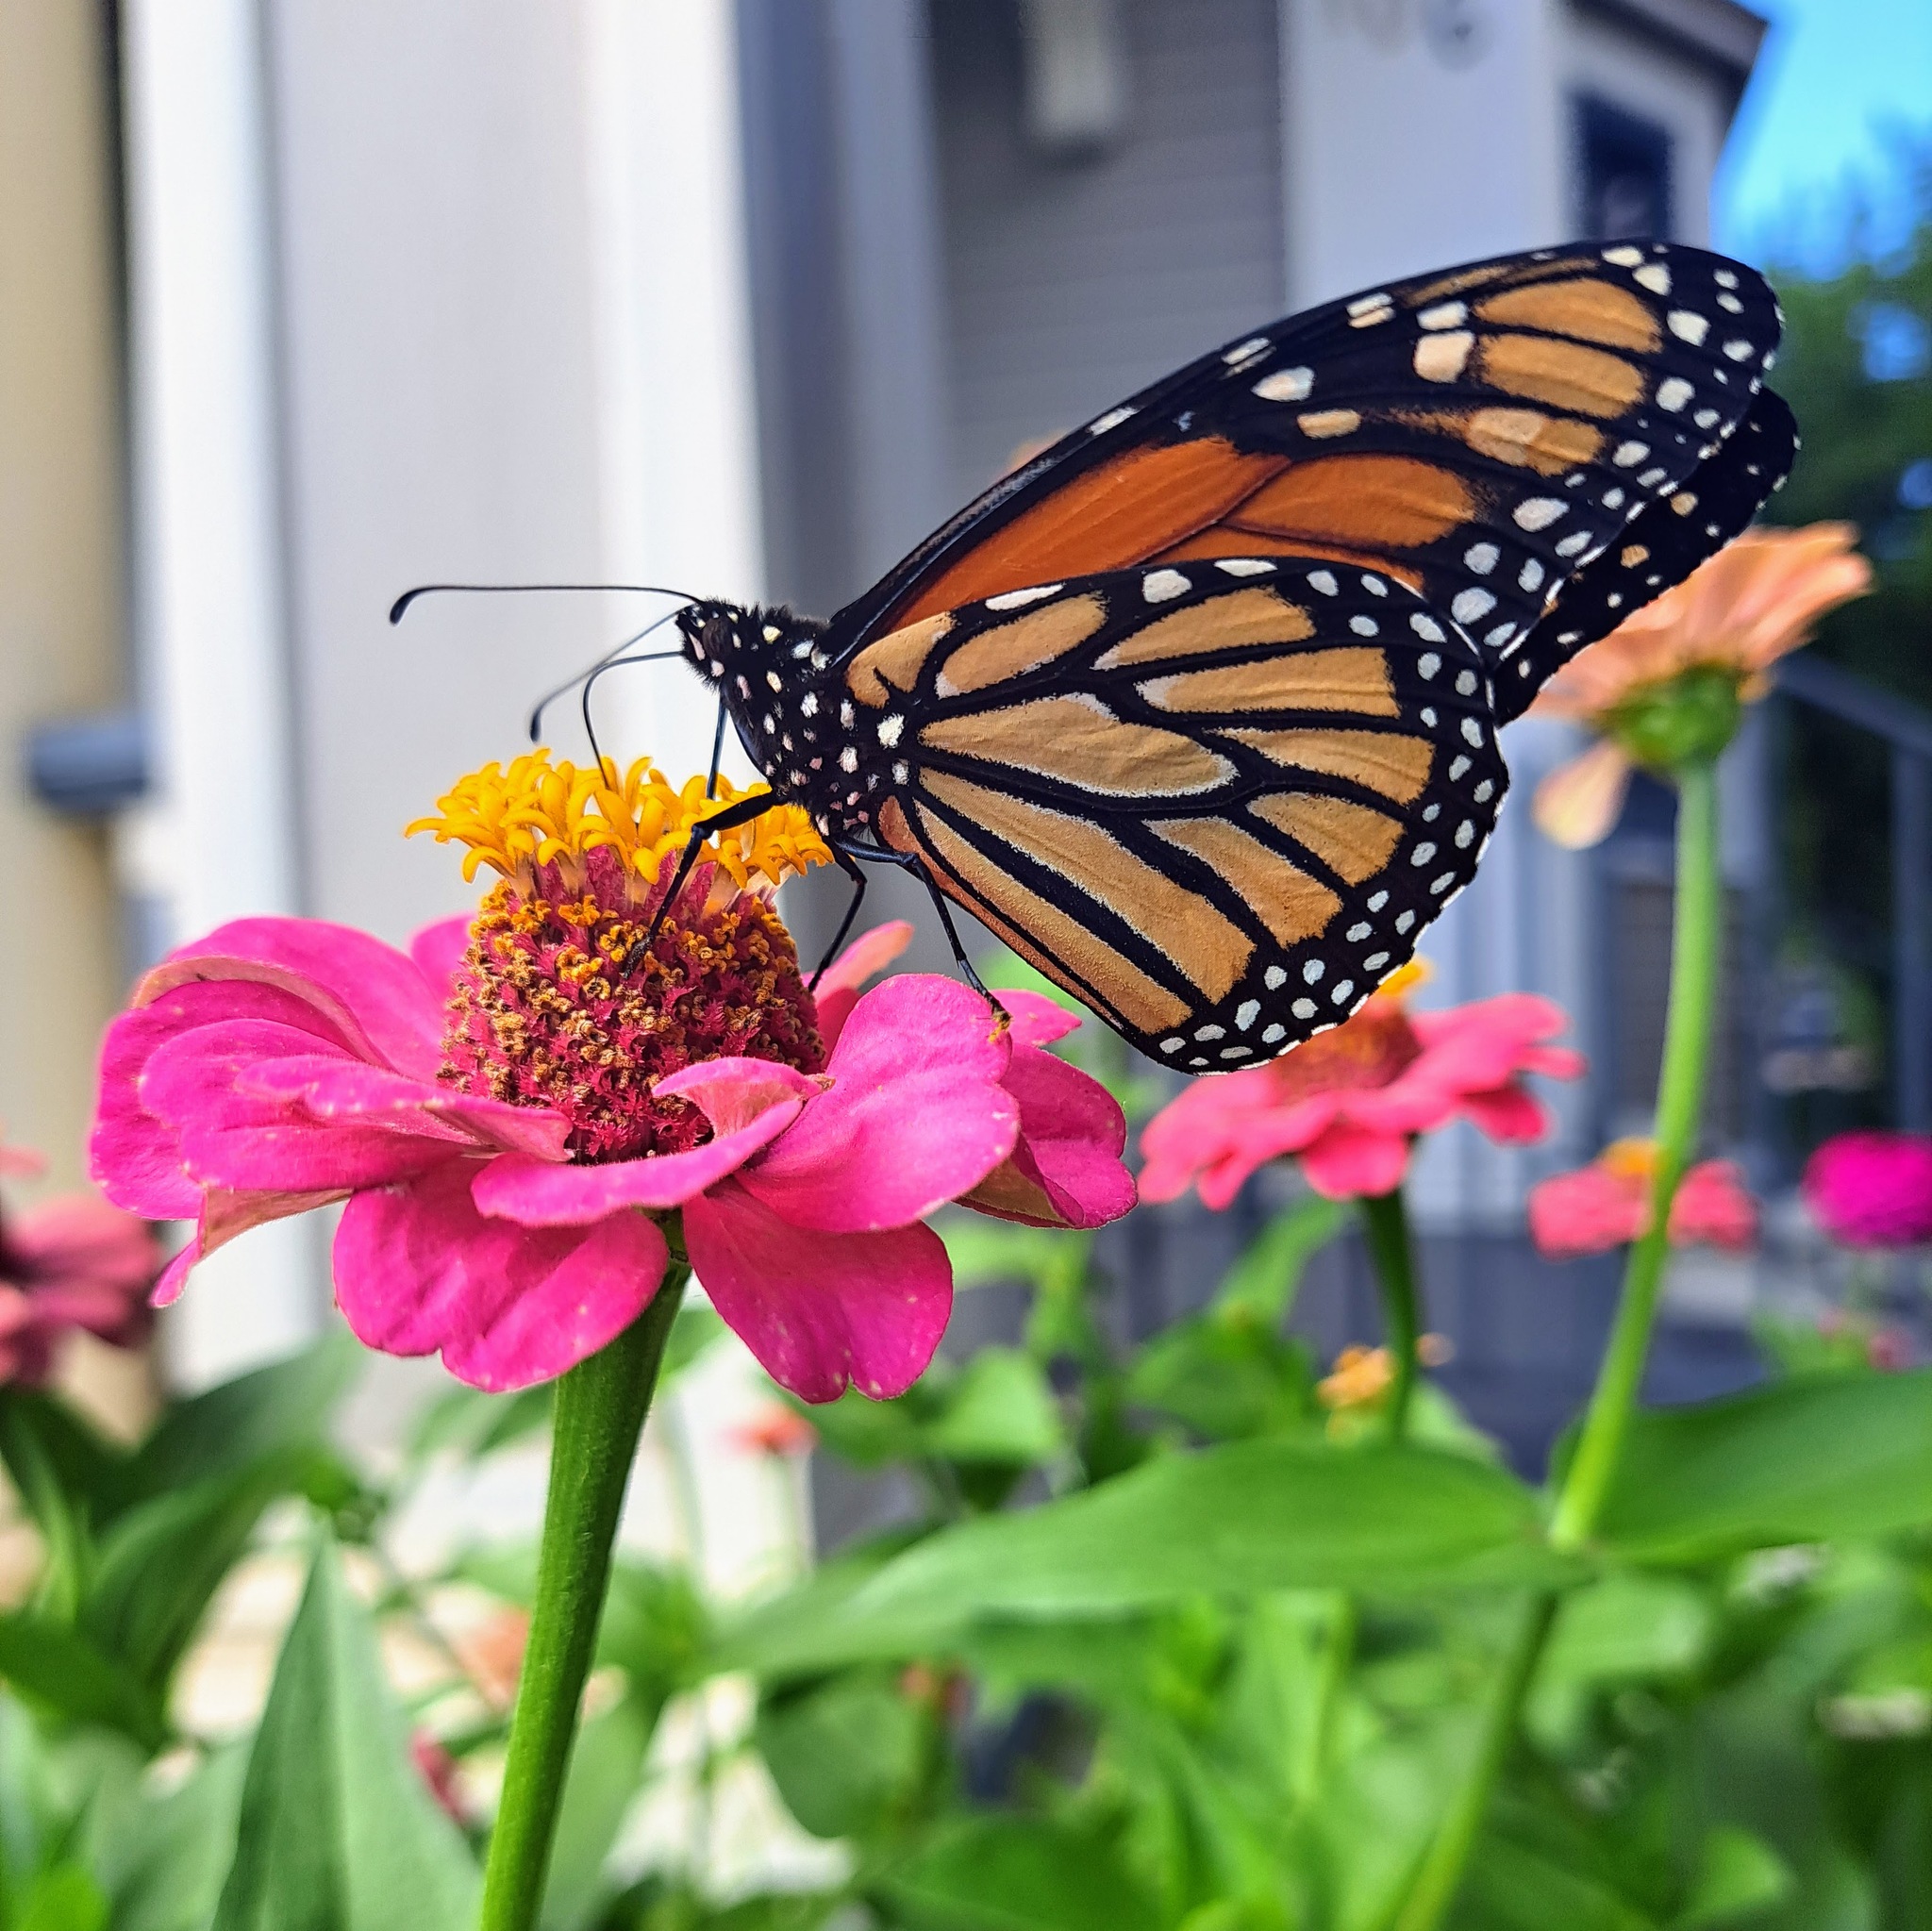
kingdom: Animalia
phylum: Arthropoda
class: Insecta
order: Lepidoptera
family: Nymphalidae
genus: Danaus
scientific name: Danaus plexippus
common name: Monarch
